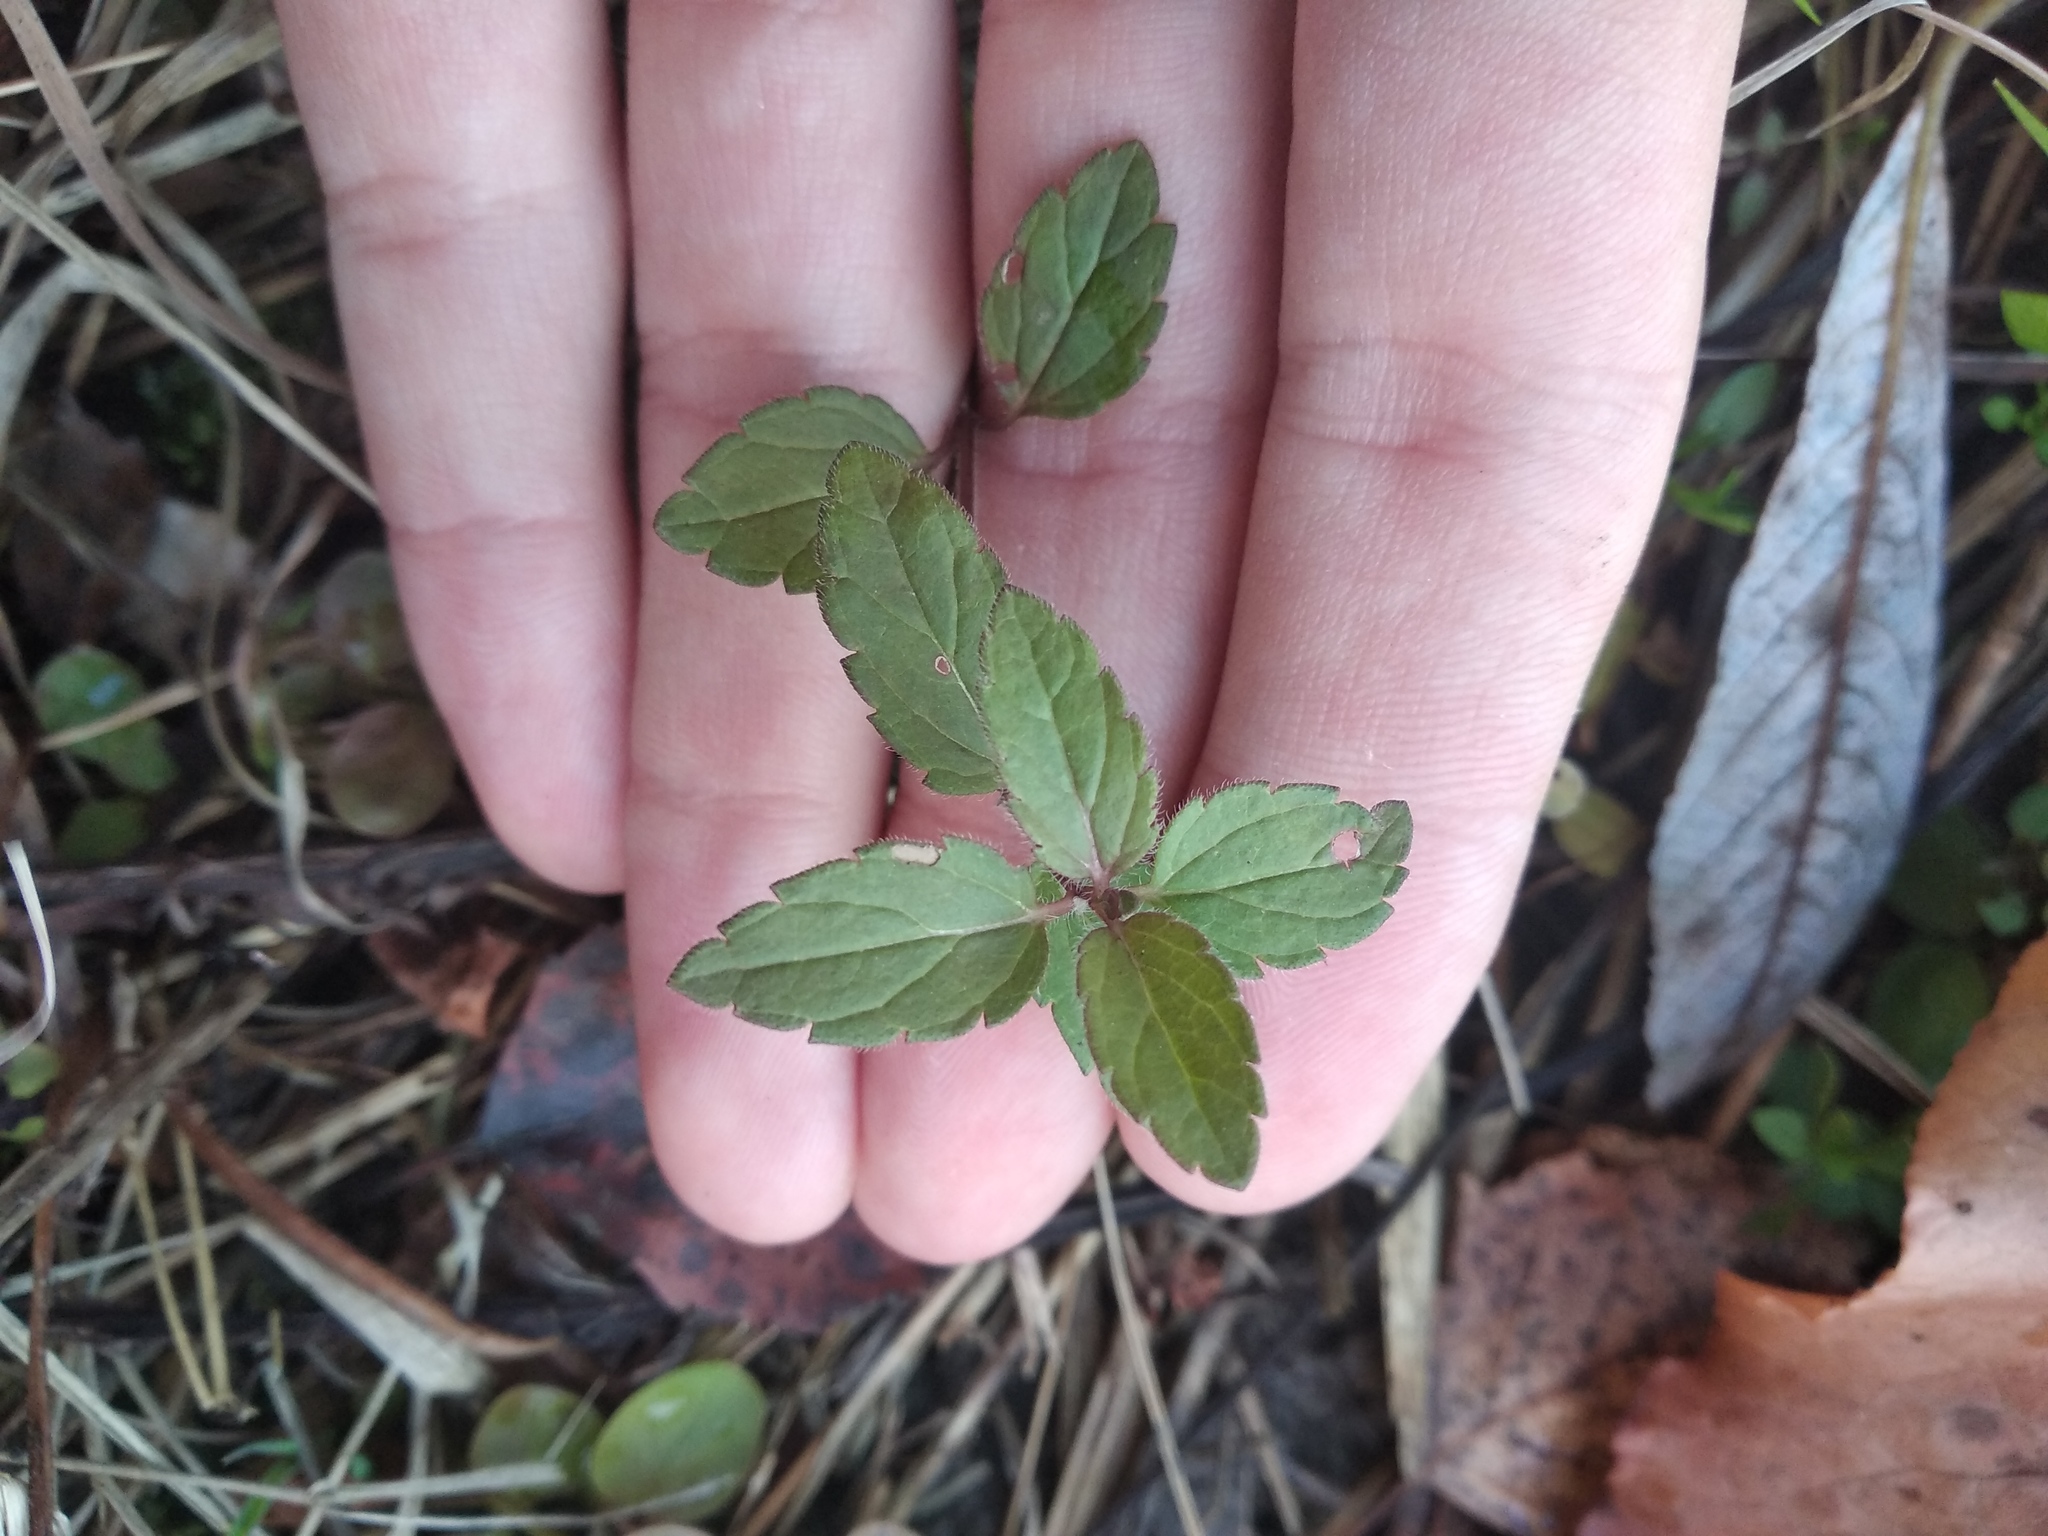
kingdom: Plantae
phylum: Tracheophyta
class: Magnoliopsida
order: Lamiales
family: Plantaginaceae
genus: Veronica
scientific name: Veronica chamaedrys
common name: Germander speedwell
